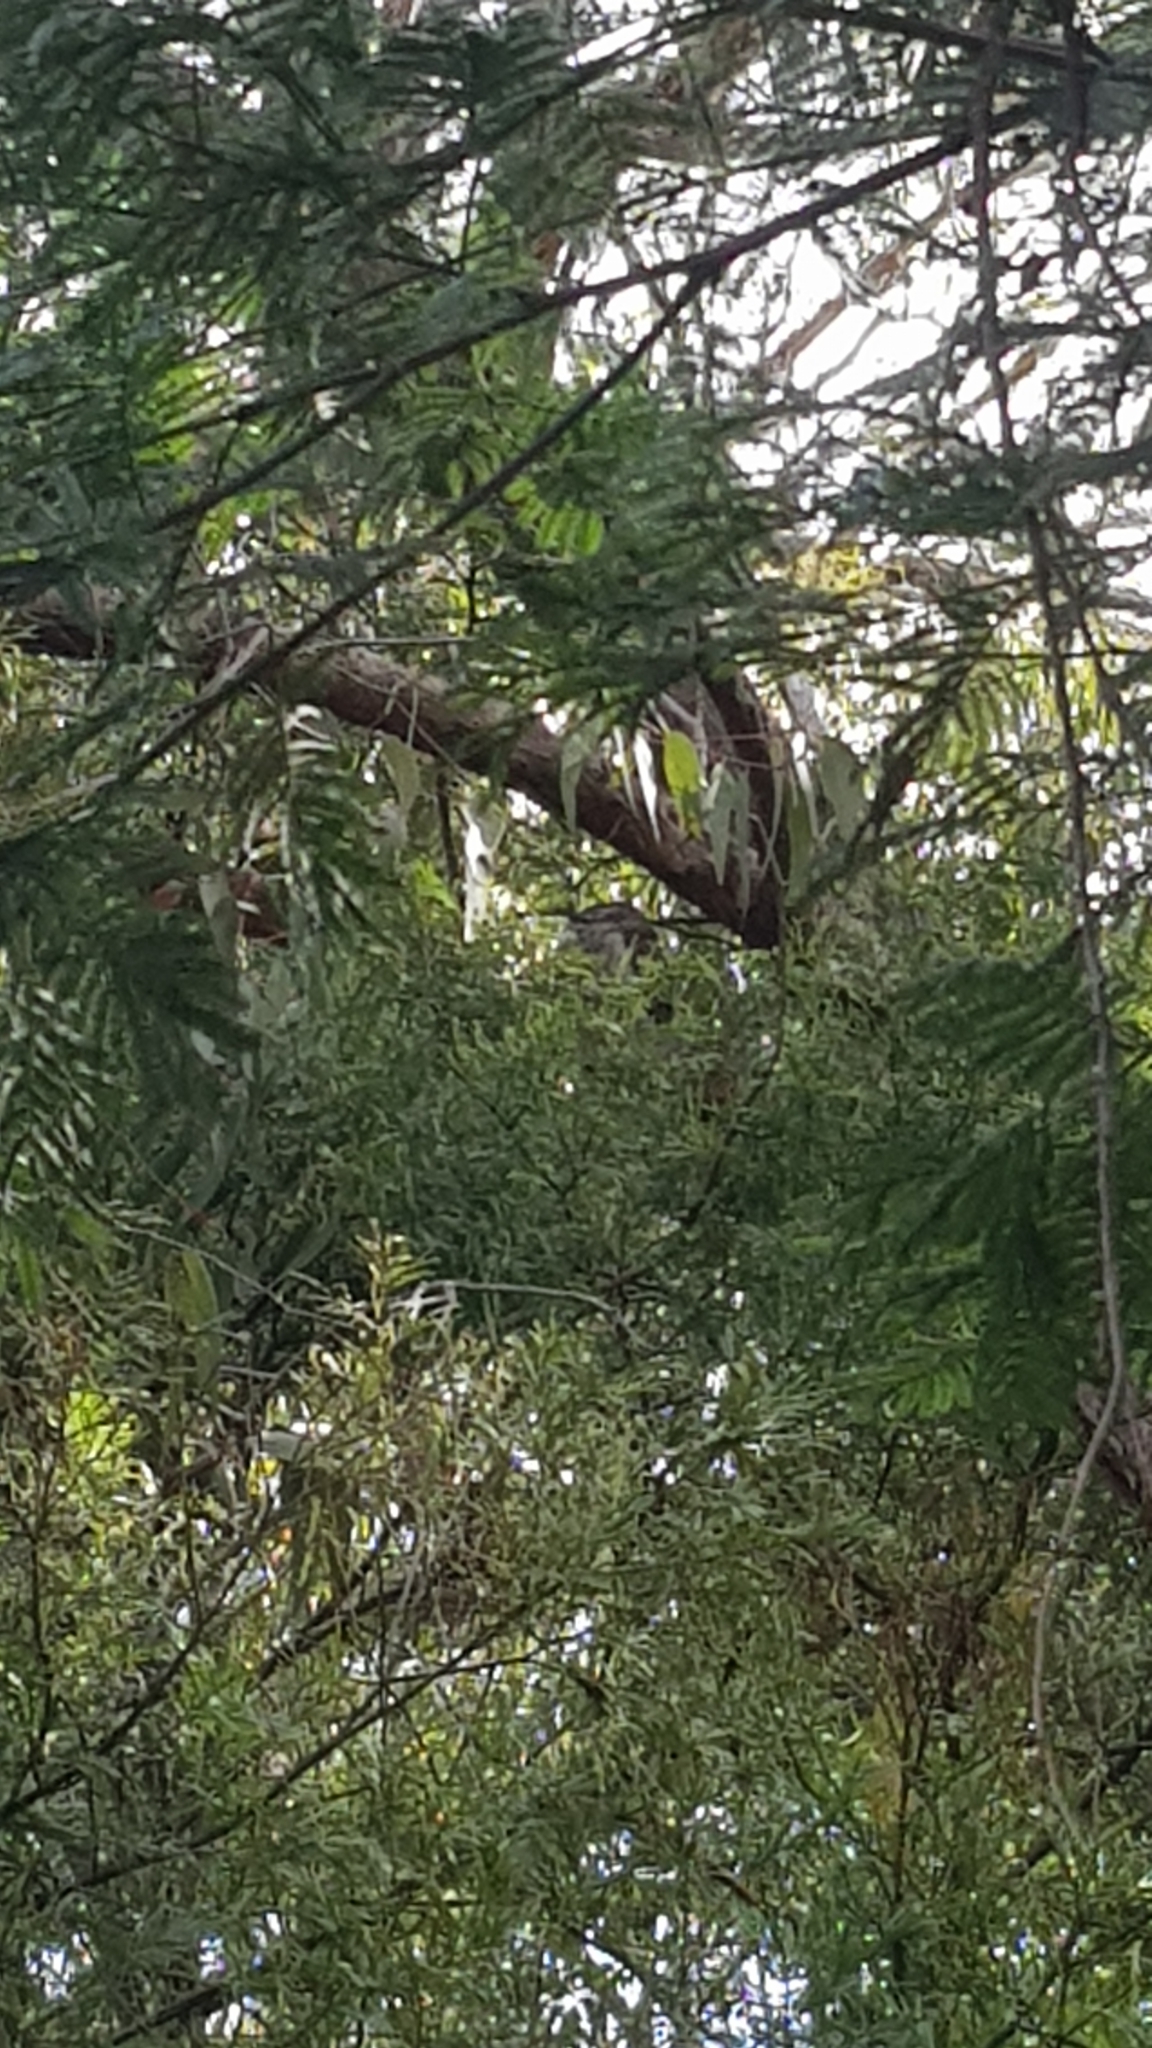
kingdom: Animalia
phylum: Chordata
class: Aves
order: Caprimulgiformes
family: Podargidae
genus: Podargus
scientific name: Podargus strigoides
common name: Tawny frogmouth
